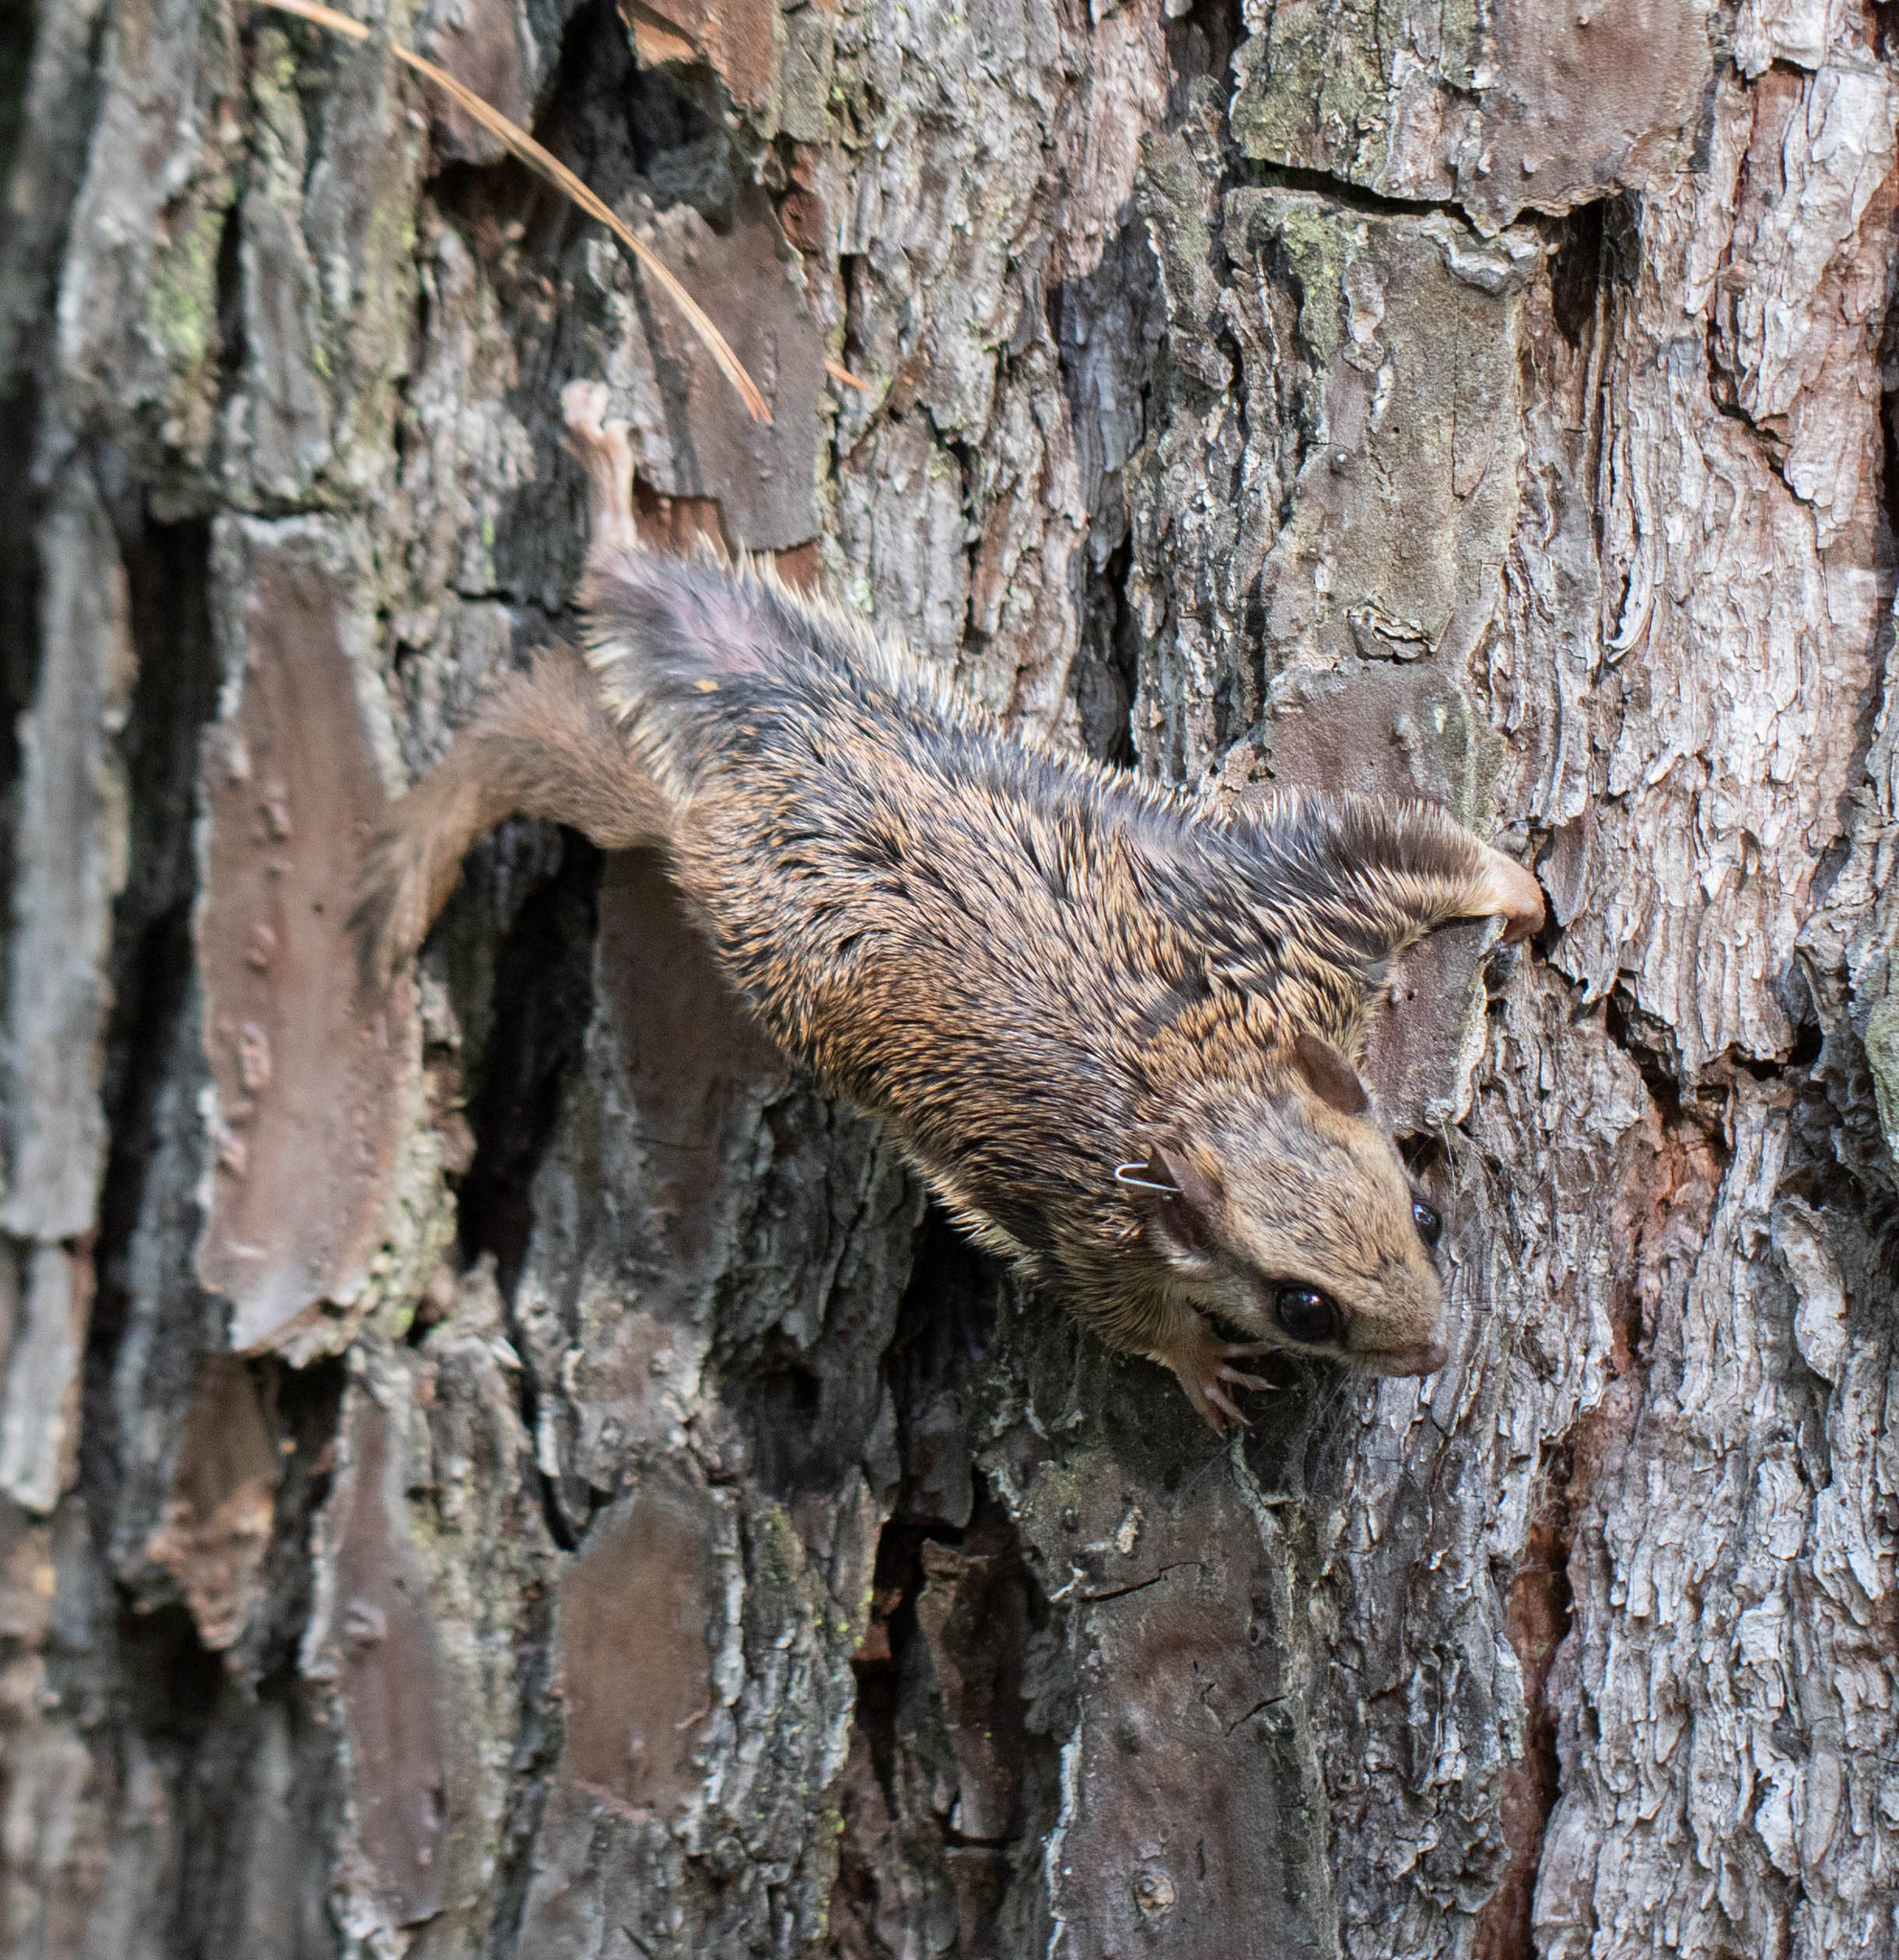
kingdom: Animalia
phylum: Chordata
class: Mammalia
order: Rodentia
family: Sciuridae
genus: Glaucomys
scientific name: Glaucomys volans
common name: Southern flying squirrel
